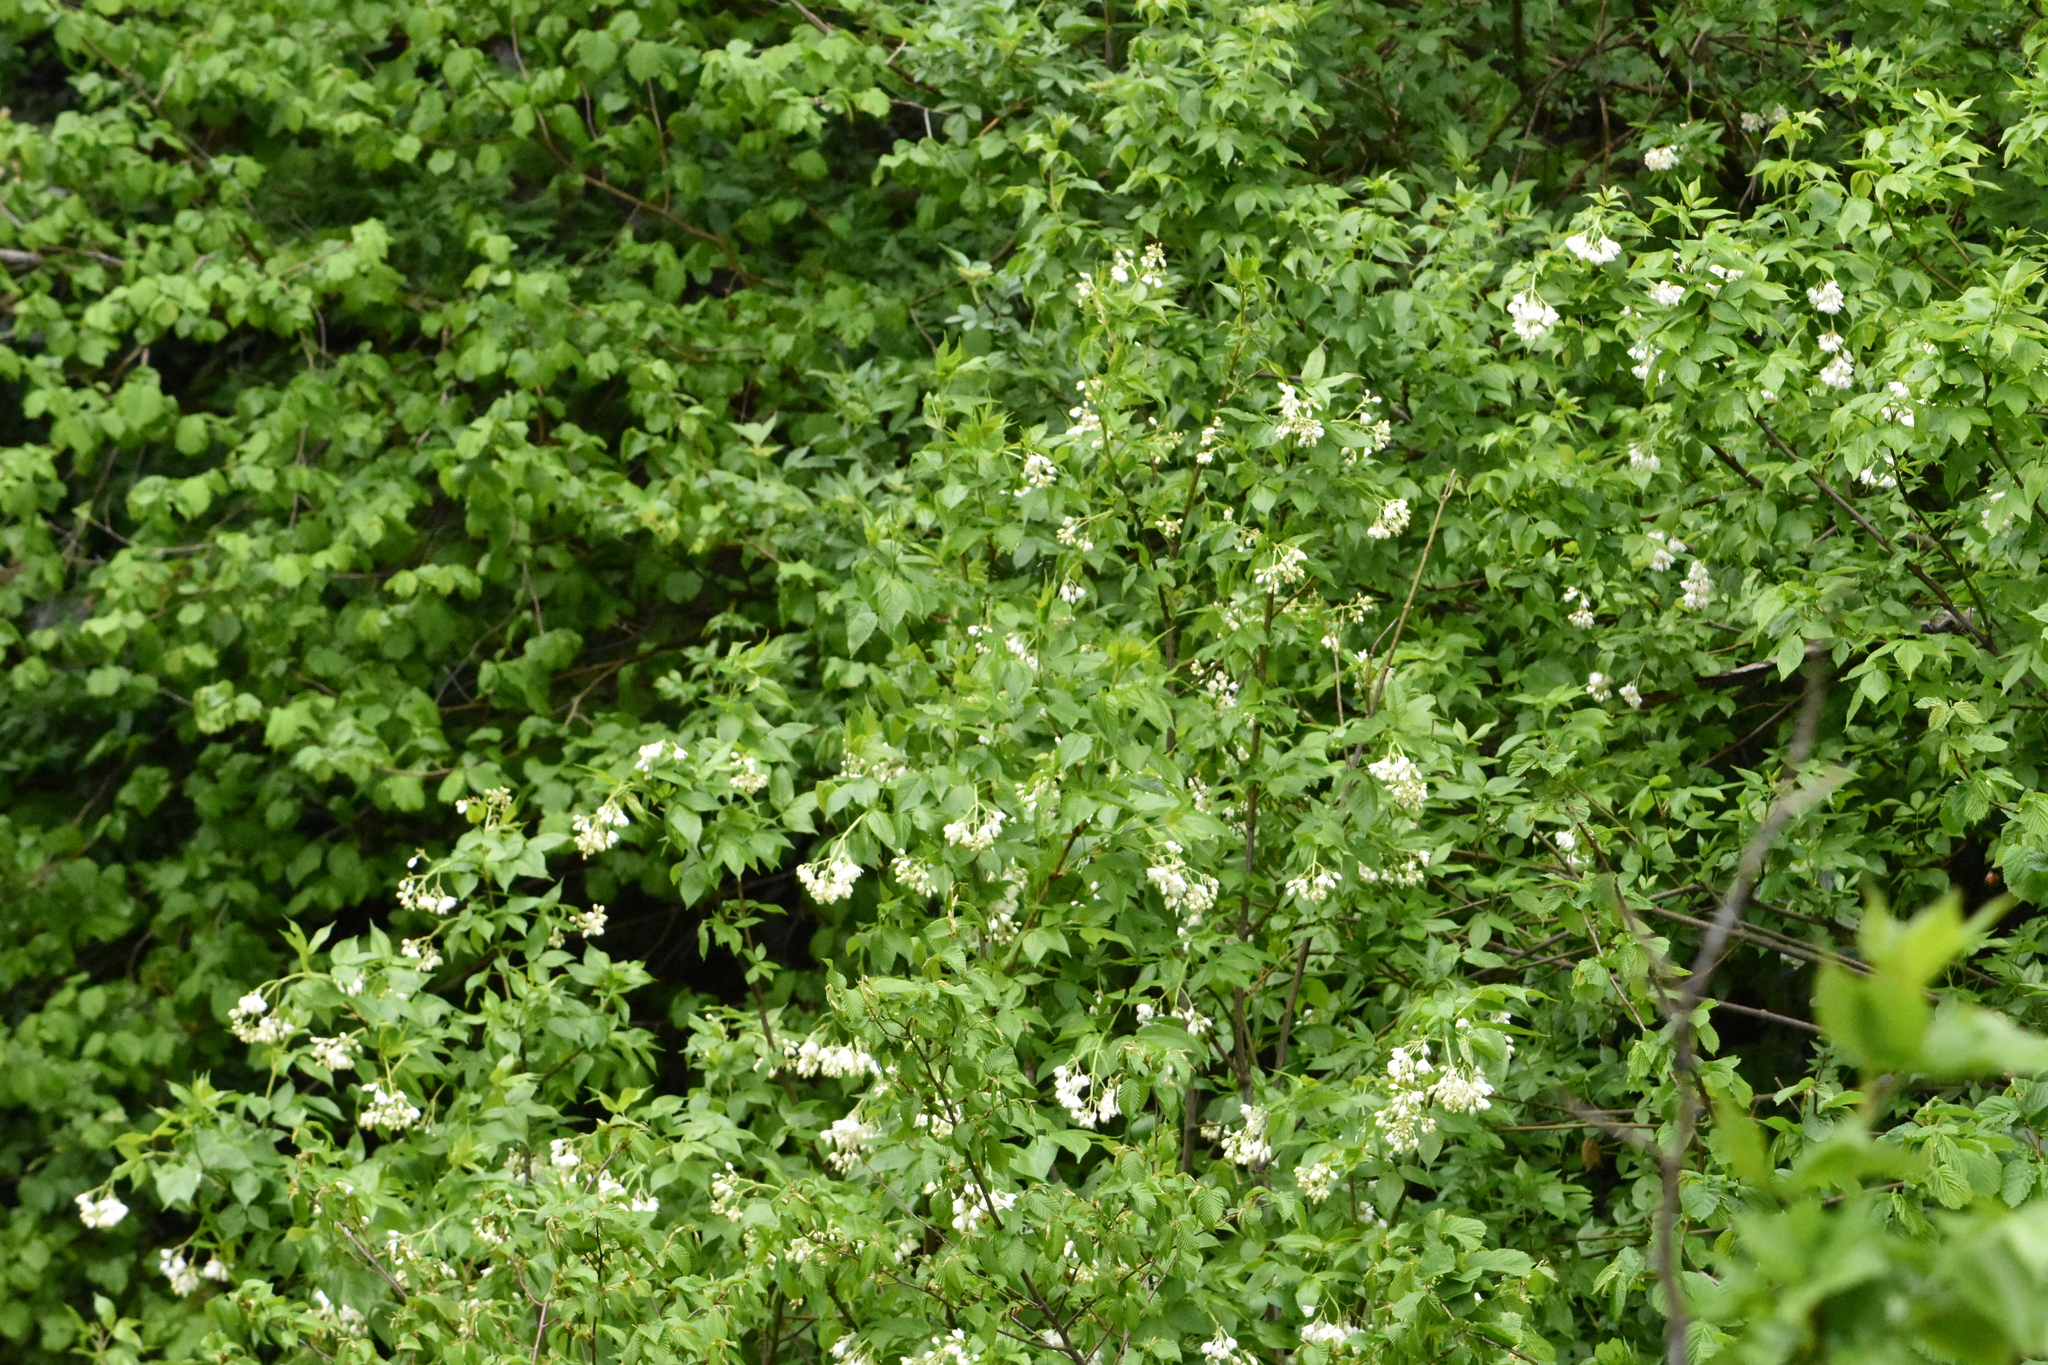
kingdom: Plantae
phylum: Tracheophyta
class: Magnoliopsida
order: Crossosomatales
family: Staphyleaceae
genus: Staphylea
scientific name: Staphylea colchica
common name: Caucasian bladdernut
